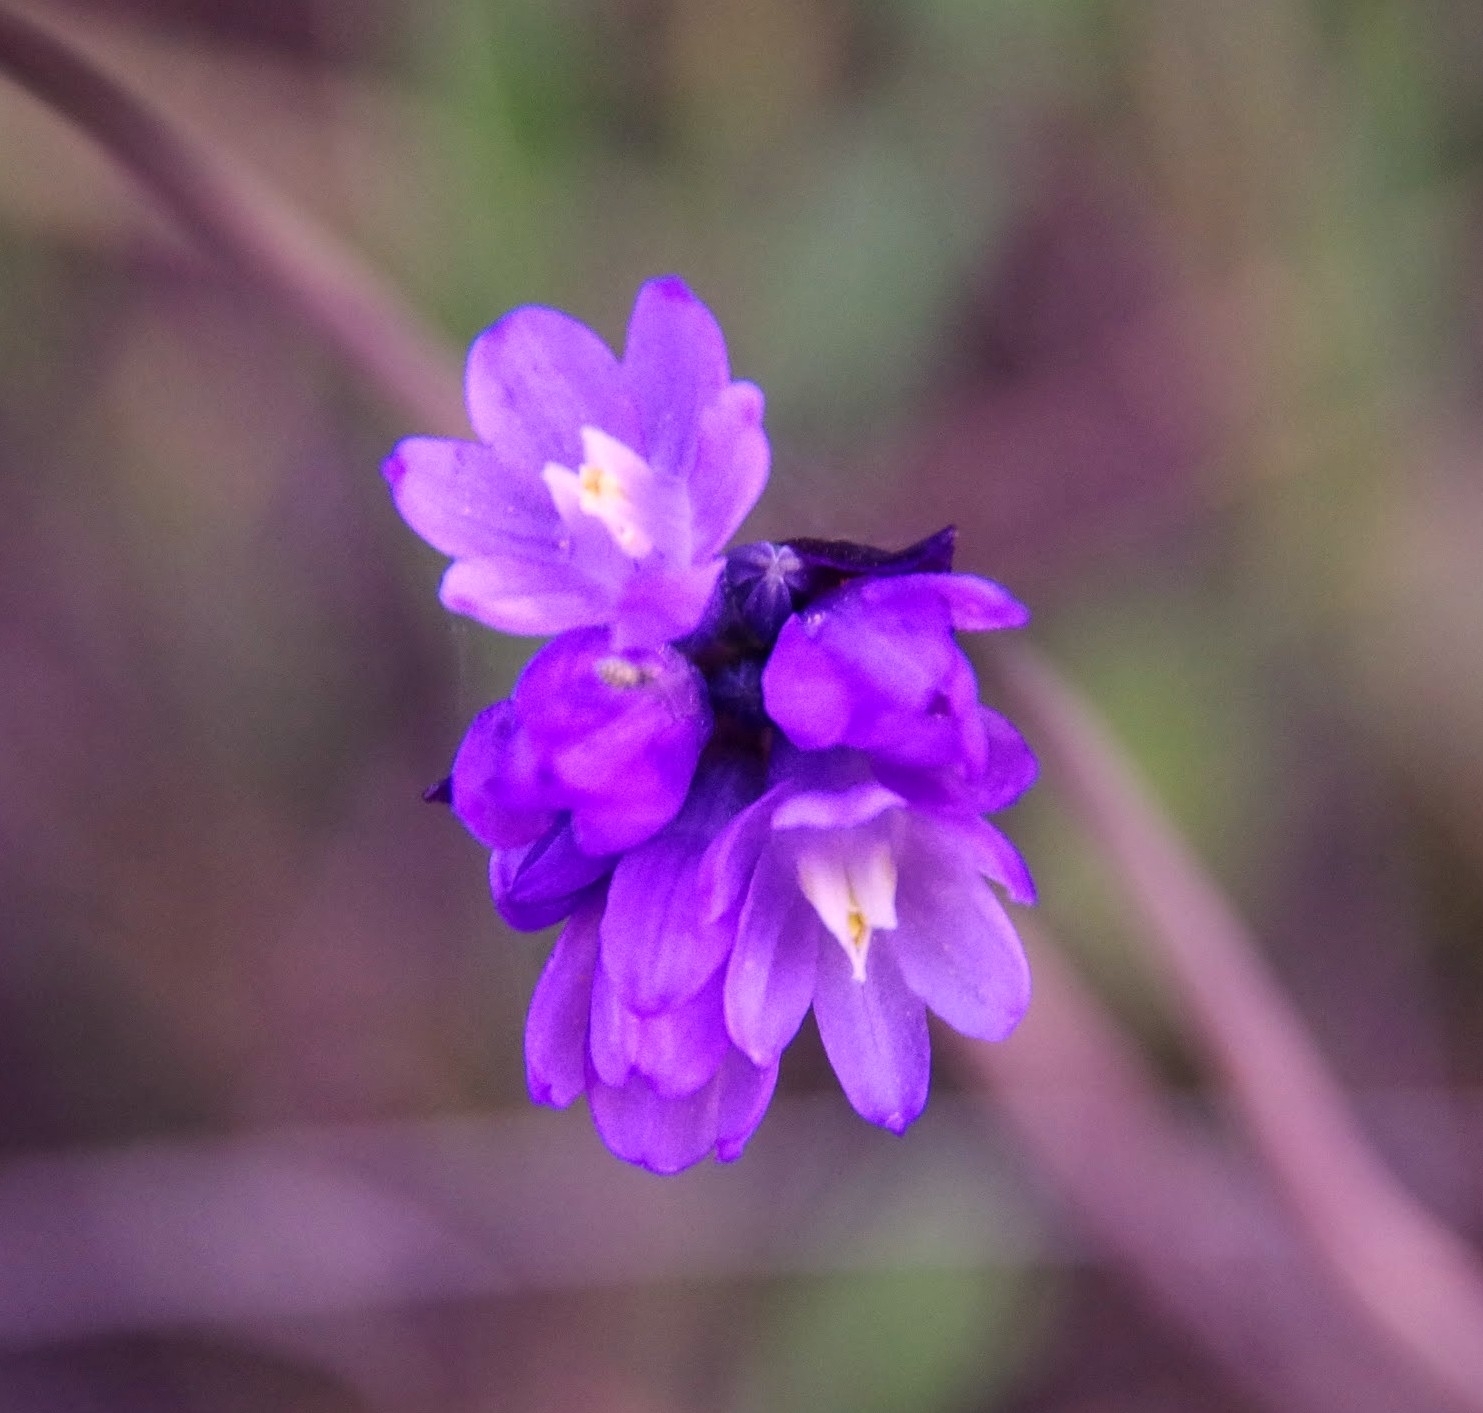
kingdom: Plantae
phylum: Tracheophyta
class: Liliopsida
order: Asparagales
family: Asparagaceae
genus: Dipterostemon
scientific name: Dipterostemon capitatus
